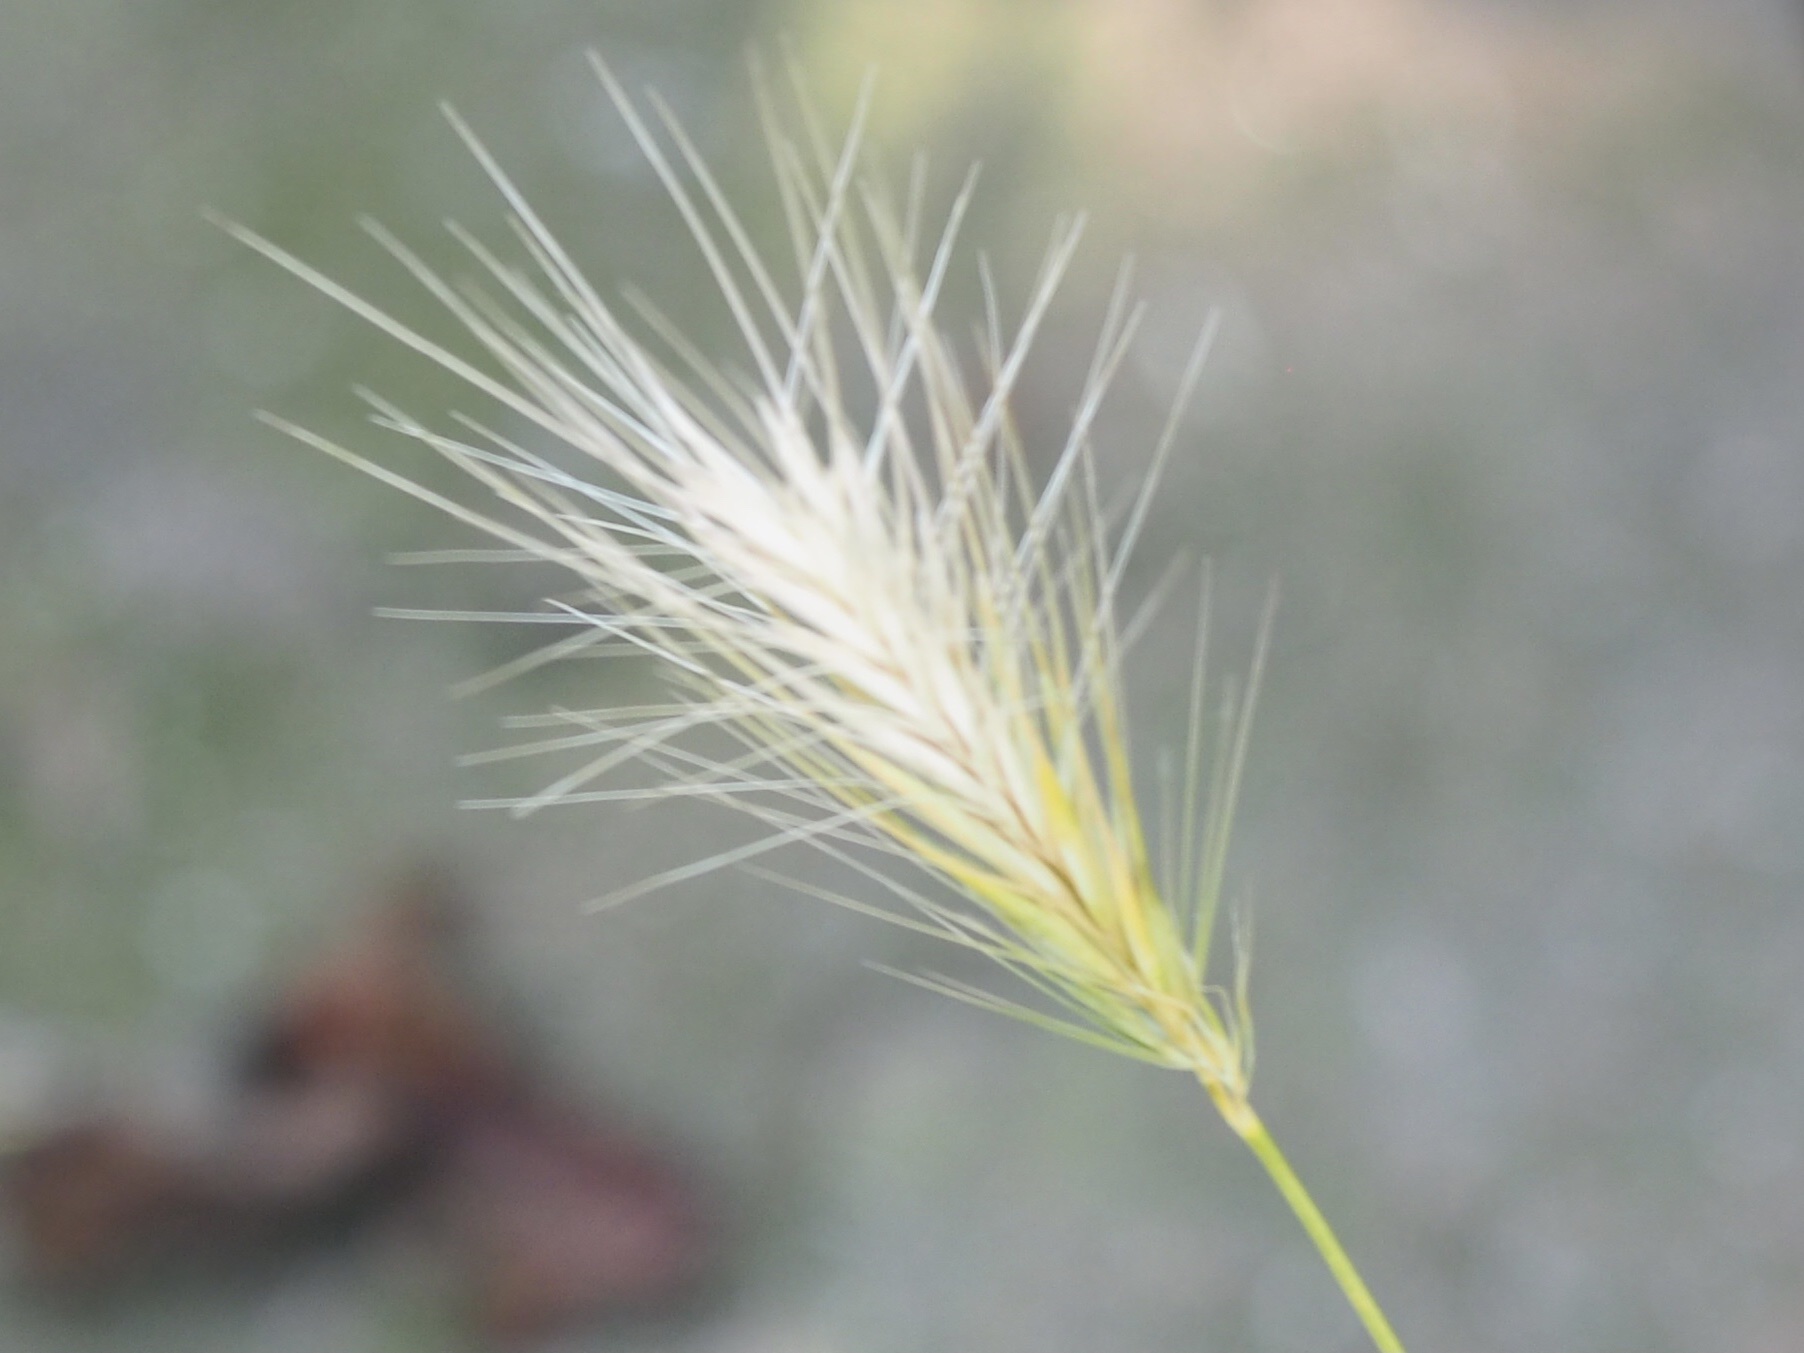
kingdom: Plantae
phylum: Tracheophyta
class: Liliopsida
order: Poales
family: Poaceae
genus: Hordeum
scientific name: Hordeum murinum
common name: Wall barley
